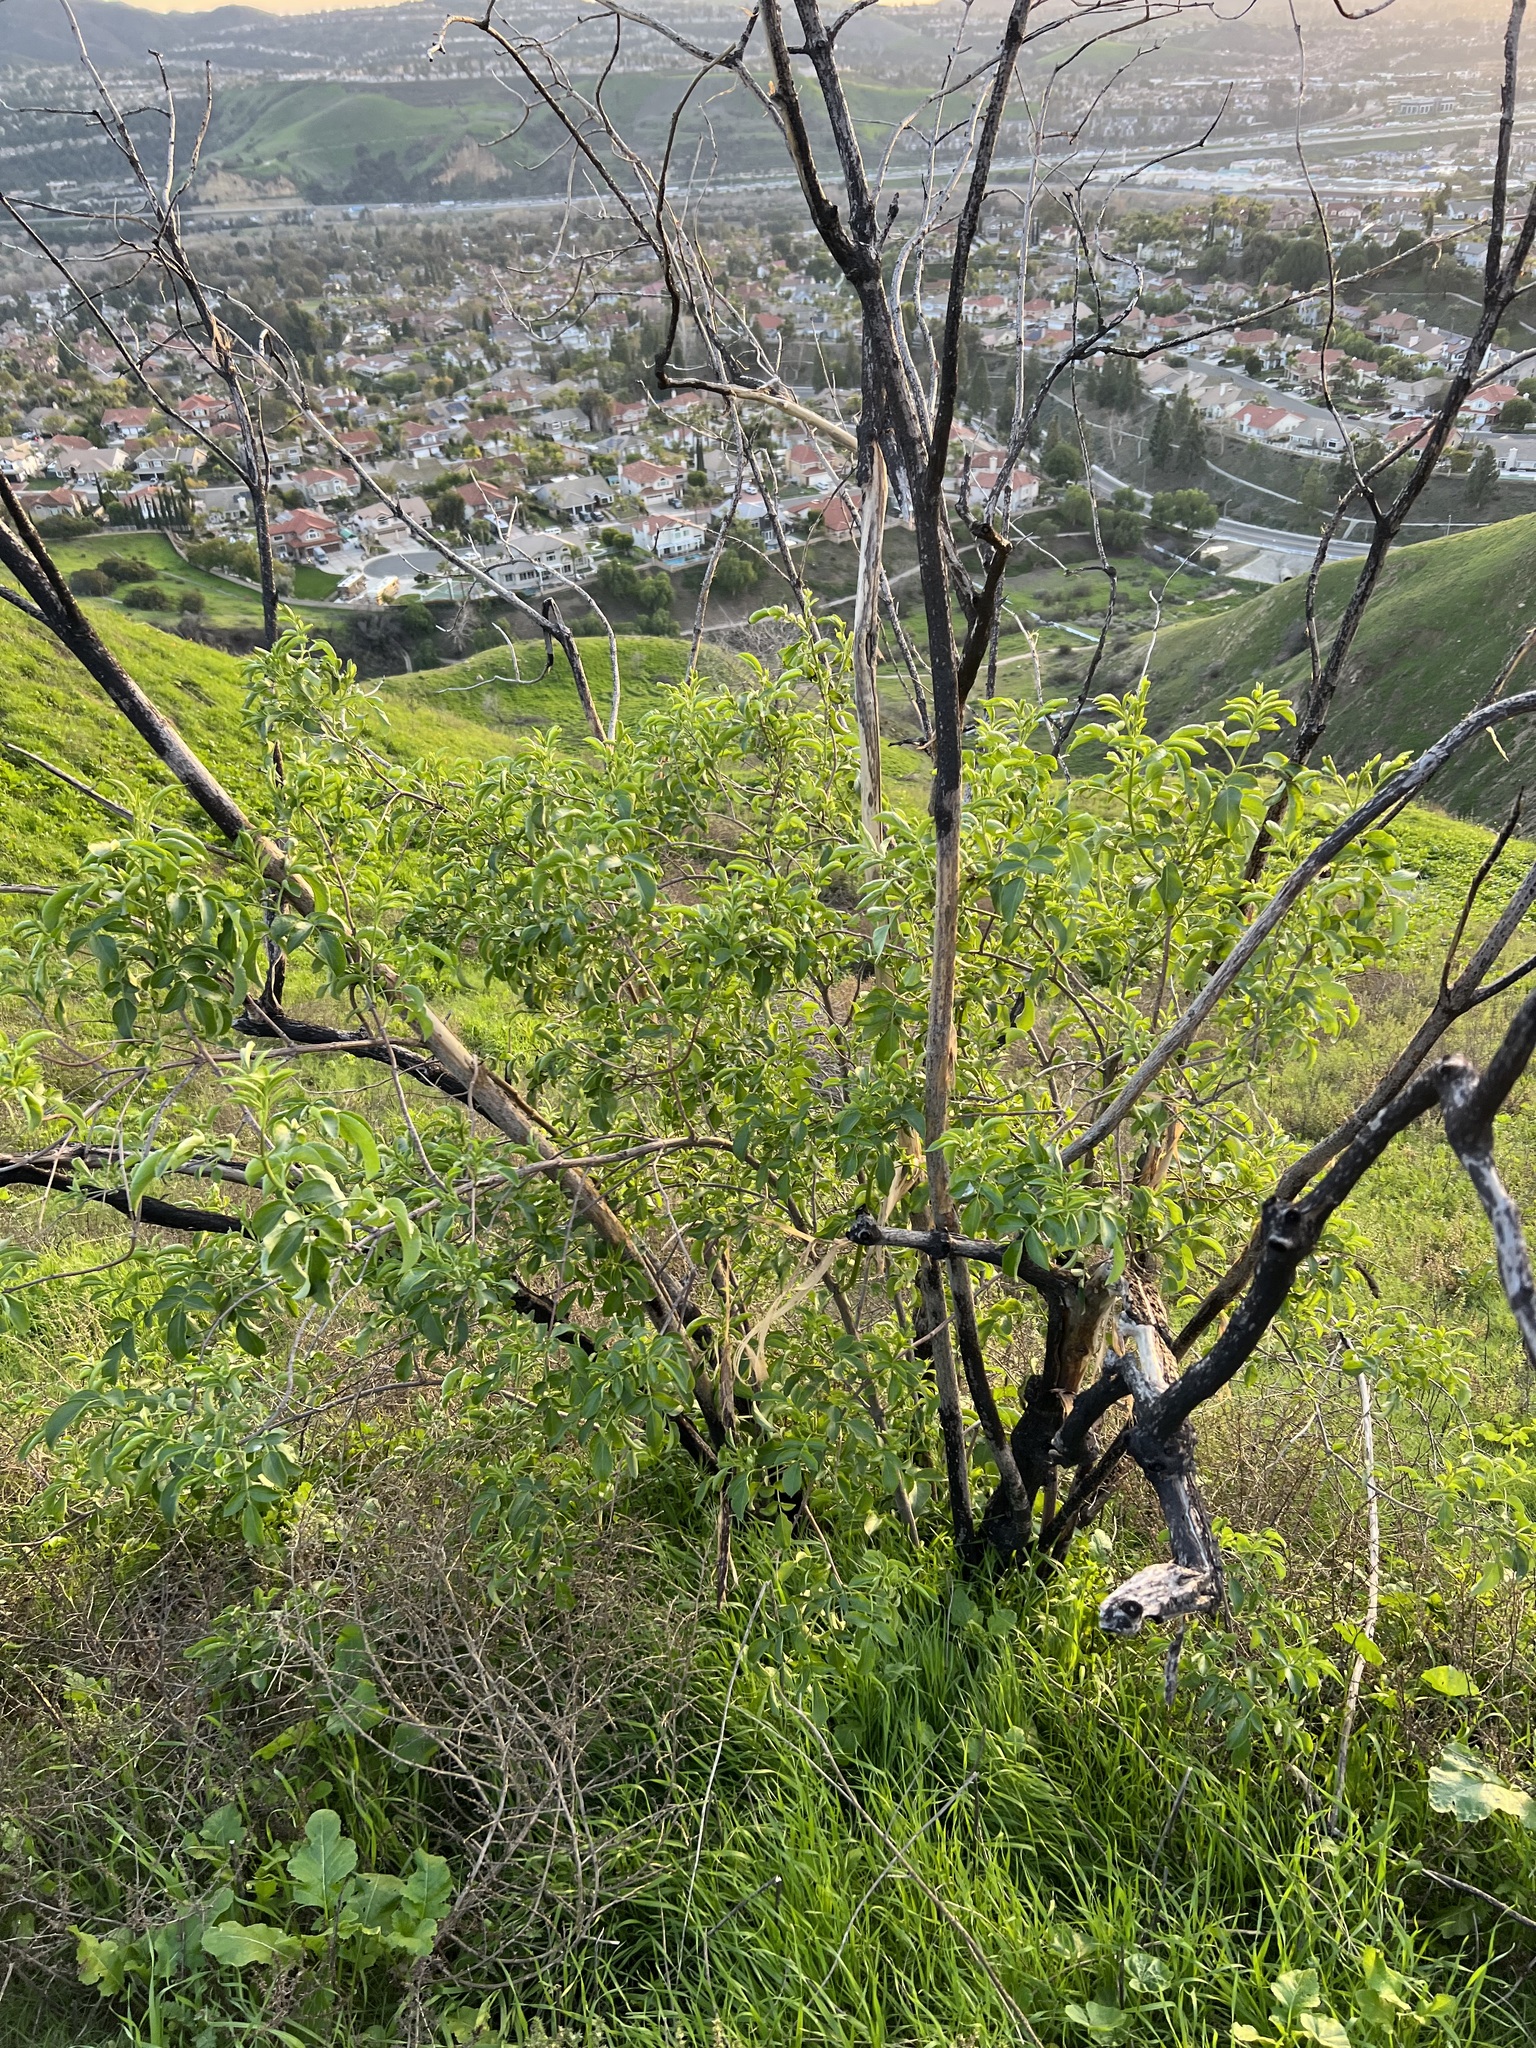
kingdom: Plantae
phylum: Tracheophyta
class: Magnoliopsida
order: Dipsacales
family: Viburnaceae
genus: Sambucus
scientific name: Sambucus cerulea
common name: Blue elder
